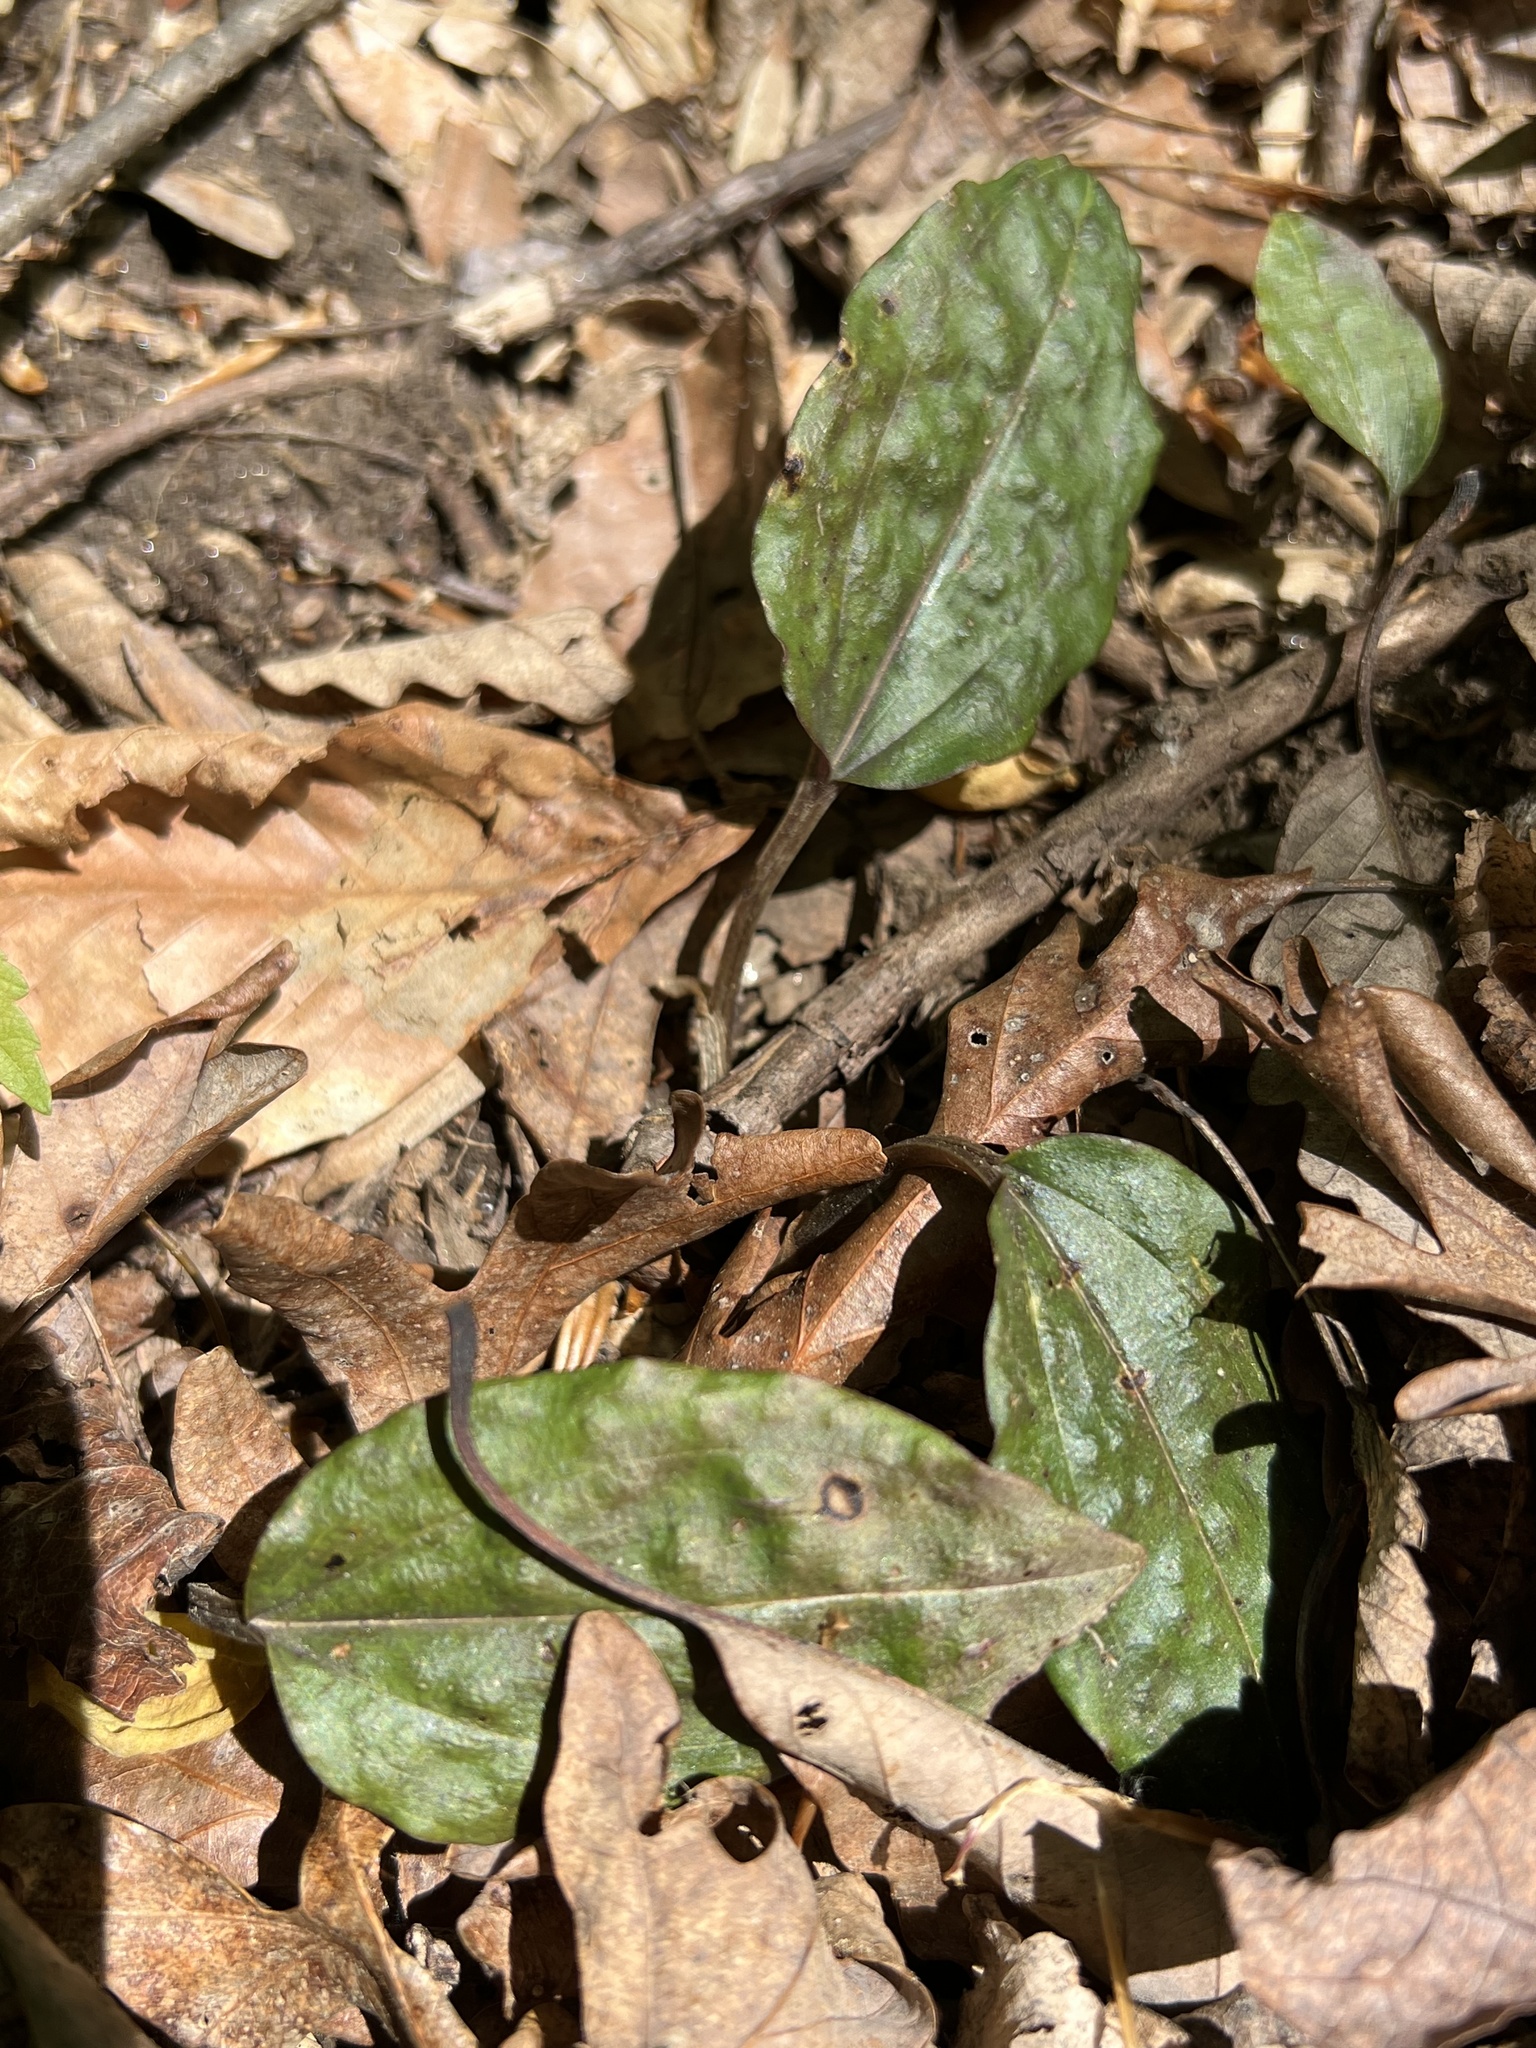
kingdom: Plantae
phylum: Tracheophyta
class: Liliopsida
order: Asparagales
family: Orchidaceae
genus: Tipularia
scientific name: Tipularia discolor
